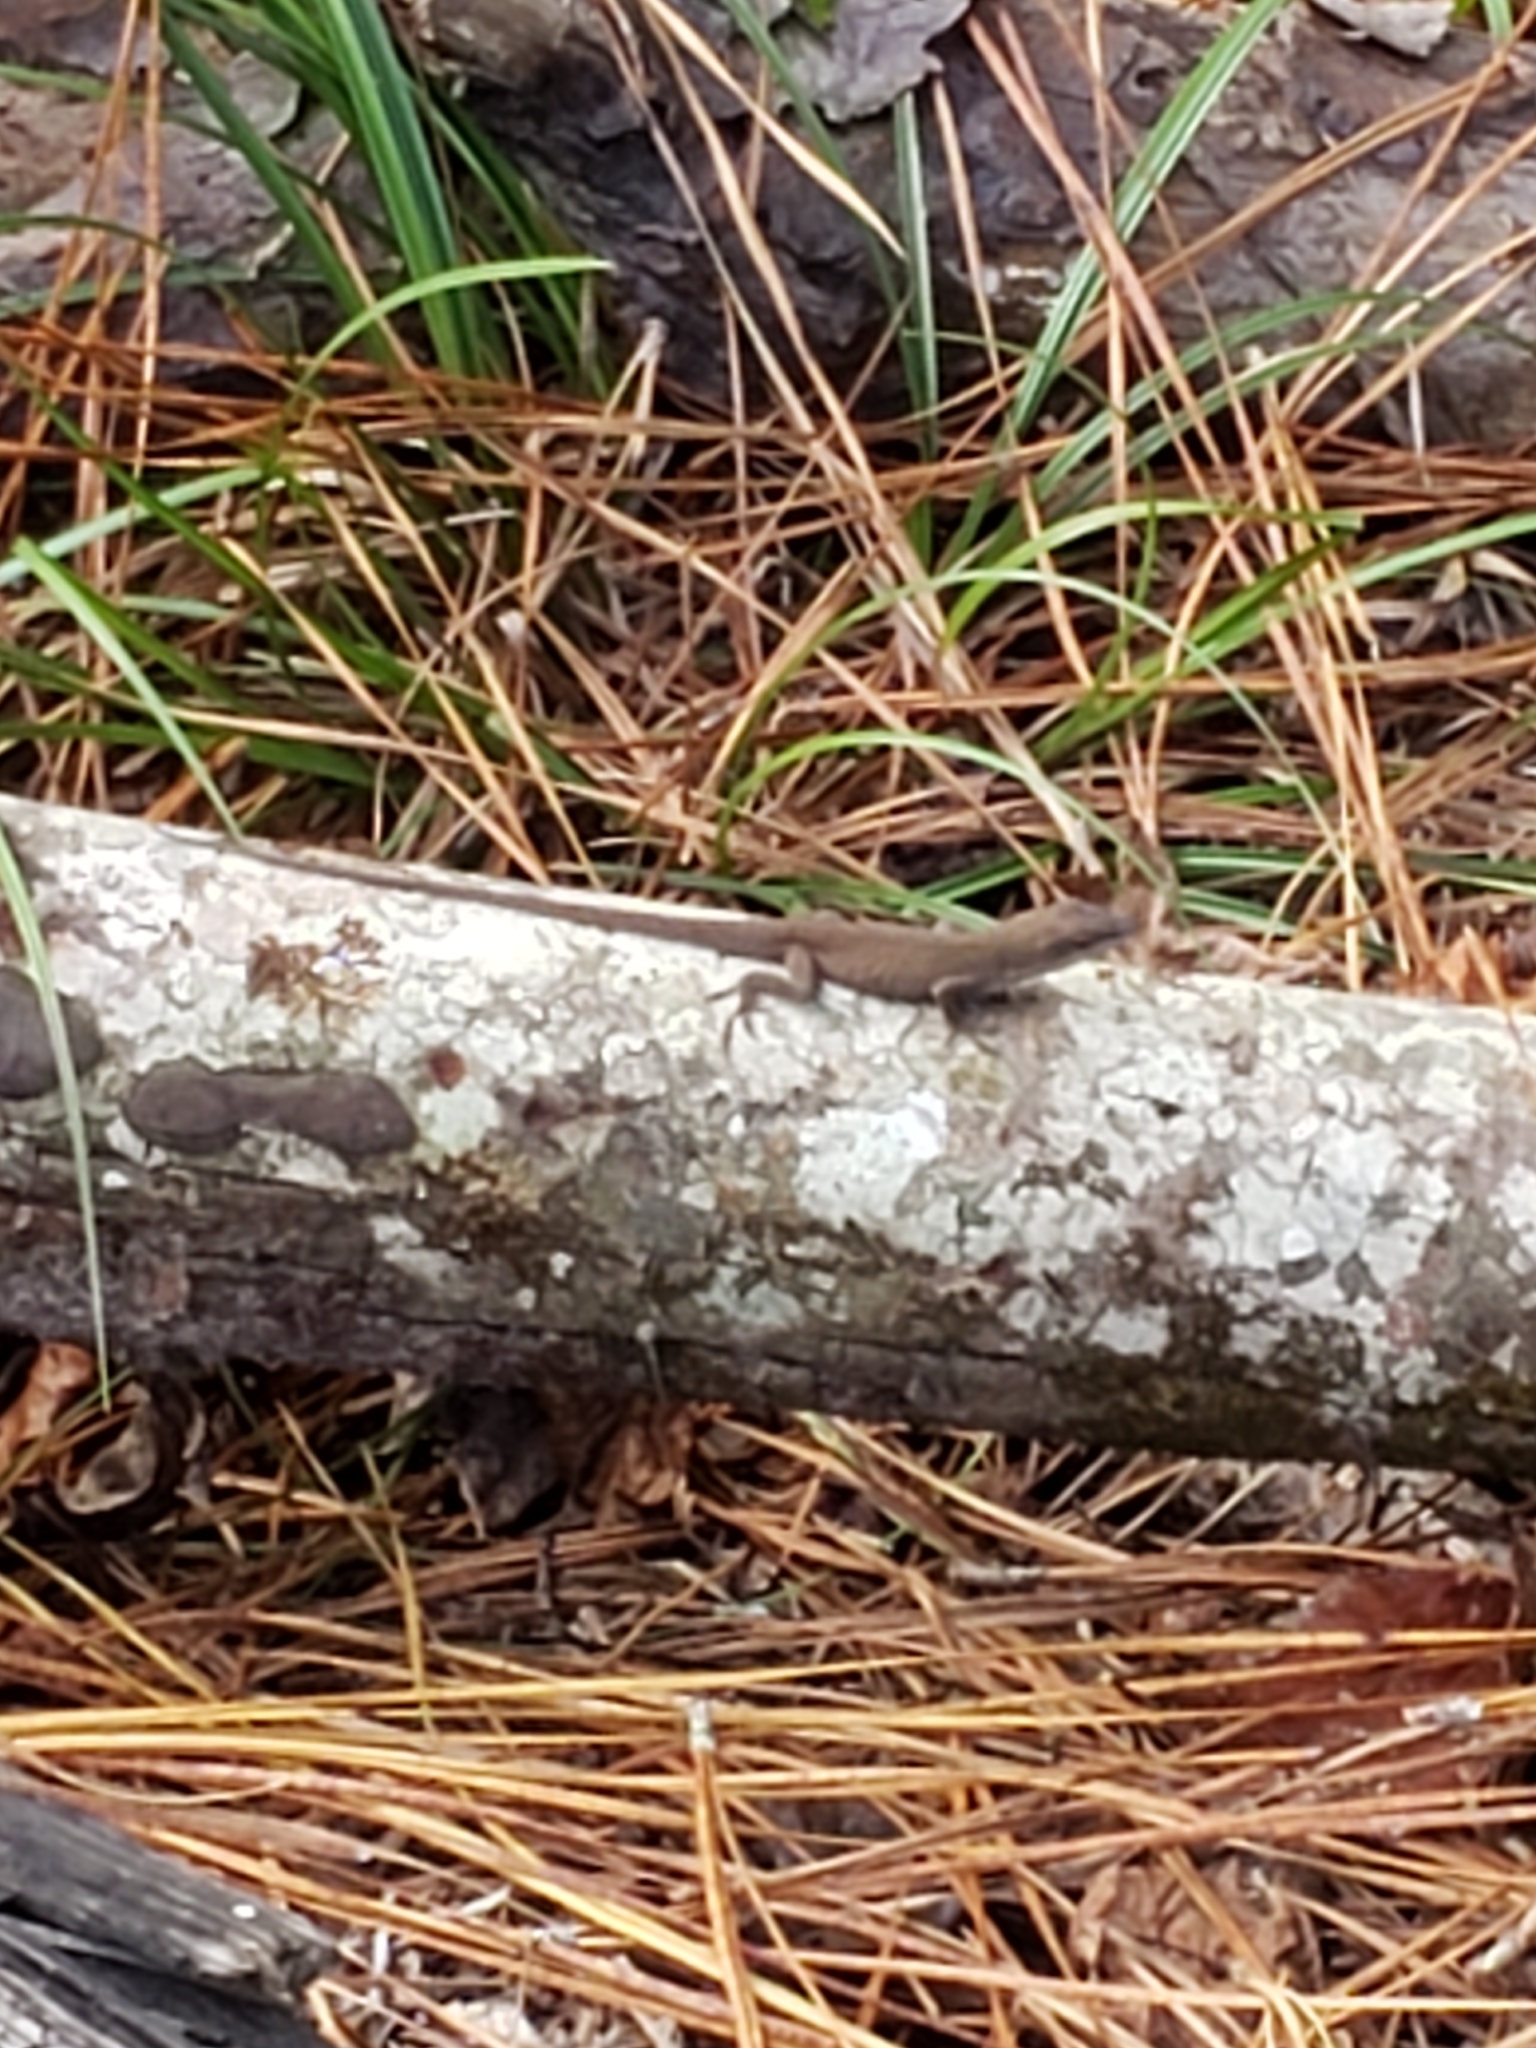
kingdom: Animalia
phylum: Chordata
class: Squamata
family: Dactyloidae
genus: Anolis
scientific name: Anolis carolinensis
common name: Green anole
